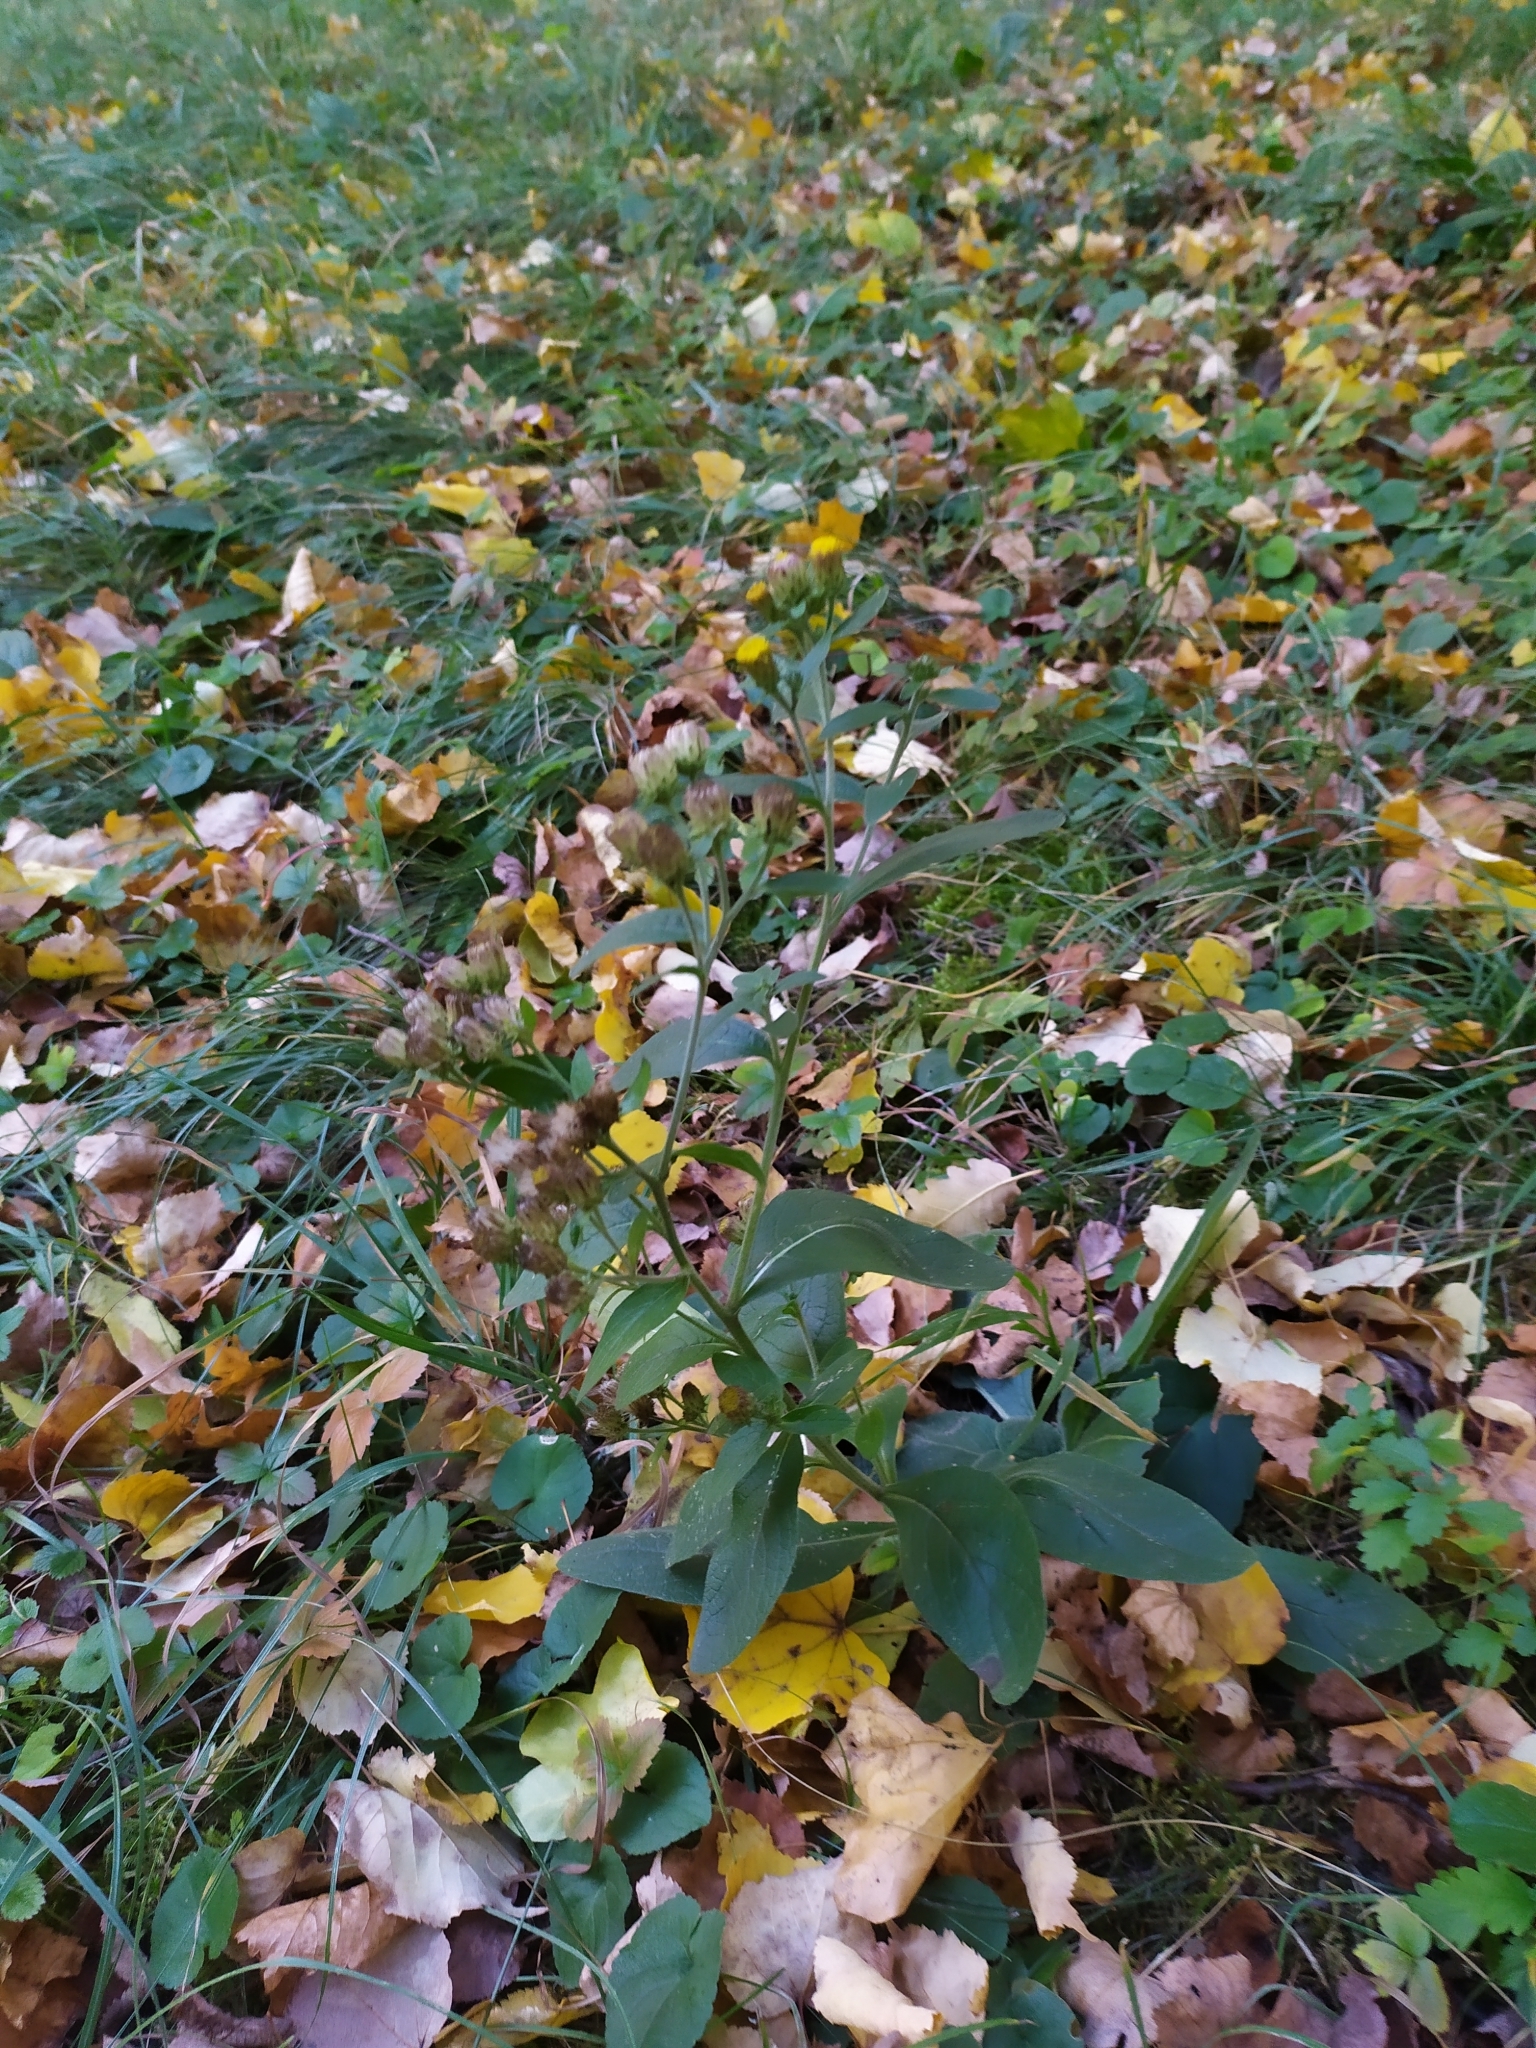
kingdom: Plantae
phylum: Tracheophyta
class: Magnoliopsida
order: Asterales
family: Asteraceae
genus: Pentanema
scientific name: Pentanema squarrosum
